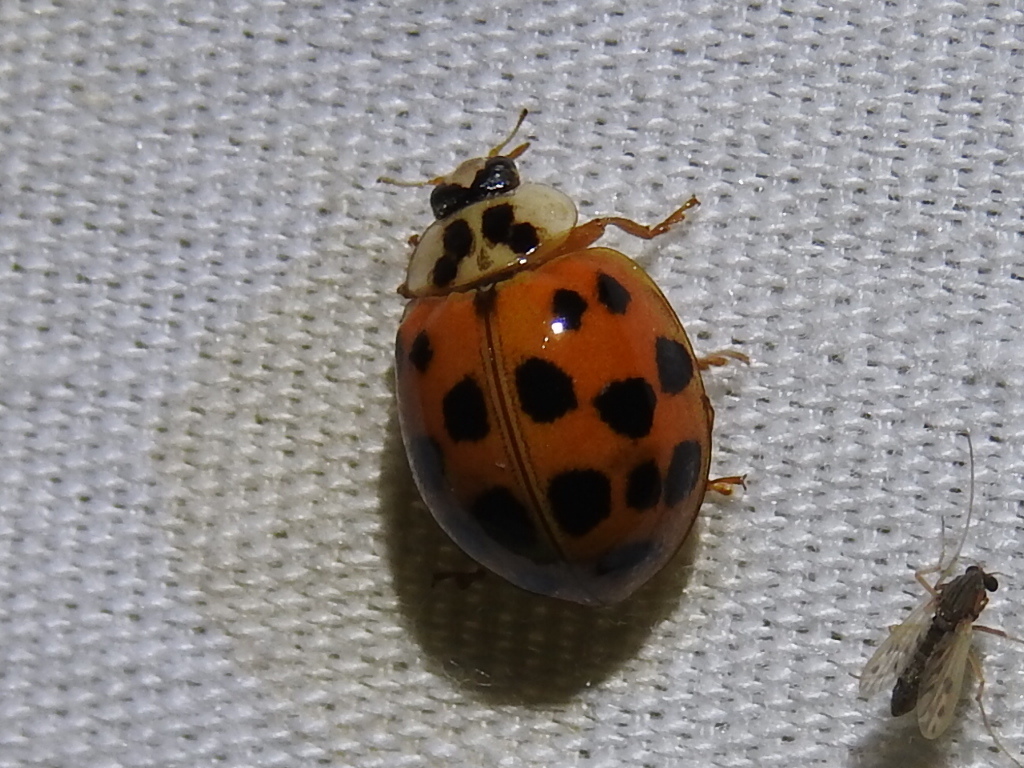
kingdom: Animalia
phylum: Arthropoda
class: Insecta
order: Coleoptera
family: Coccinellidae
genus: Harmonia
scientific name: Harmonia axyridis
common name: Harlequin ladybird
